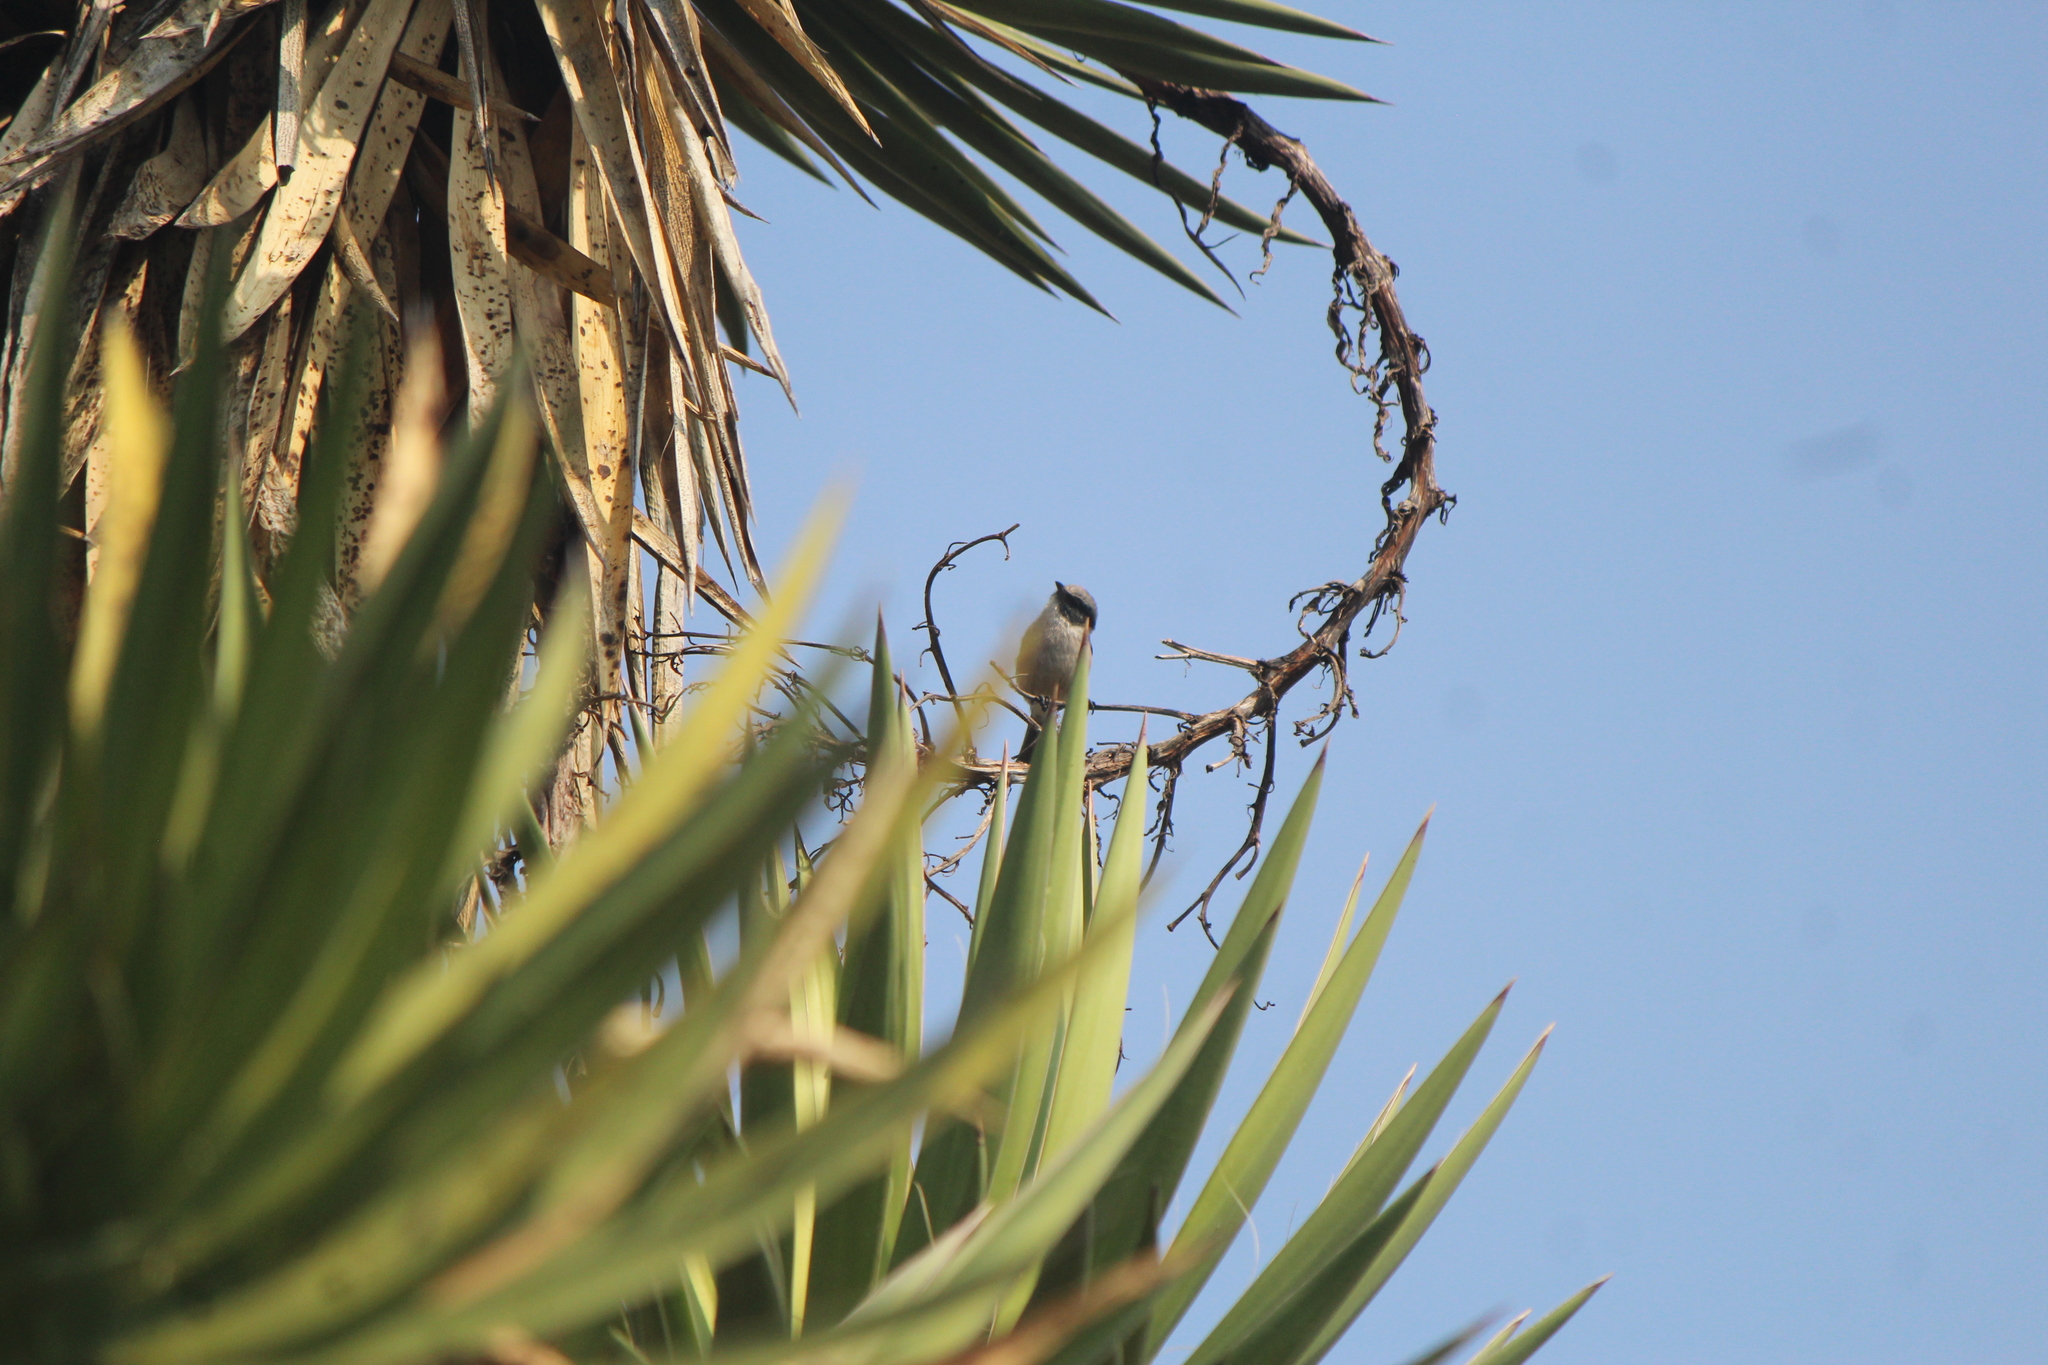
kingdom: Animalia
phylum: Chordata
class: Aves
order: Passeriformes
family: Aegithalidae
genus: Psaltriparus
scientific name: Psaltriparus minimus
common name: American bushtit
